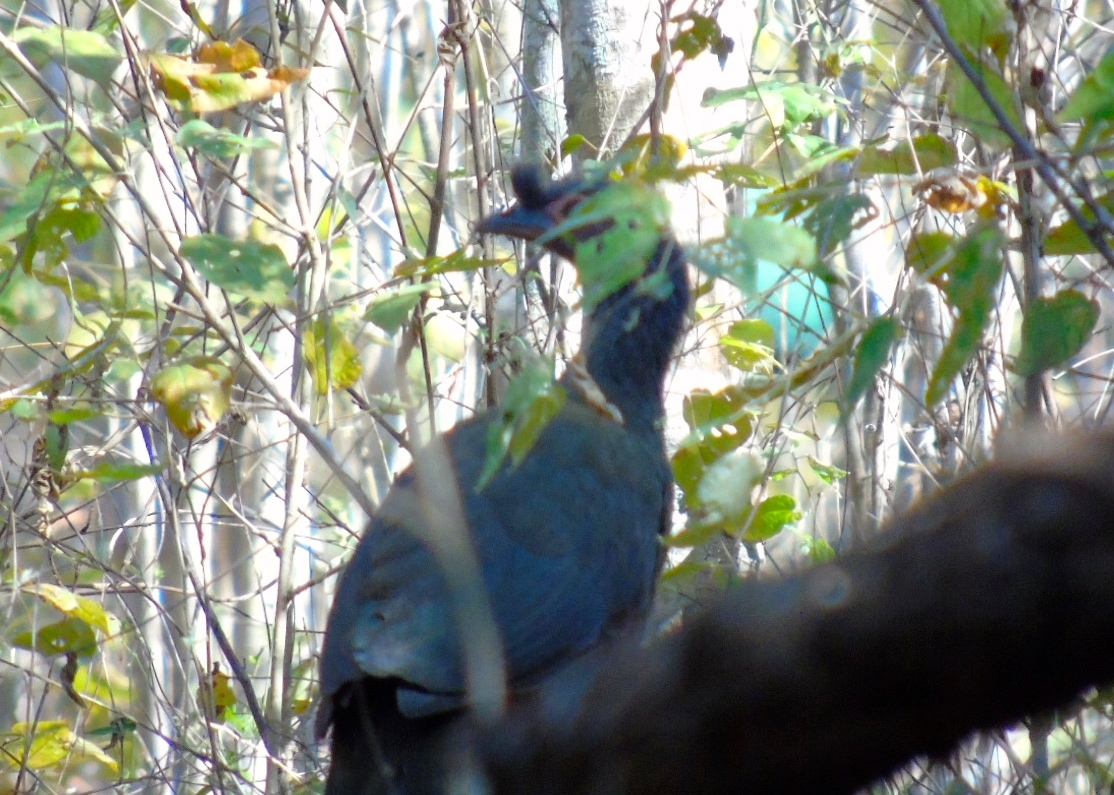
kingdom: Animalia
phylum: Chordata
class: Aves
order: Galliformes
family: Cracidae
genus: Ortalis
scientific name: Ortalis wagleri
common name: Rufous-bellied chachalaca
